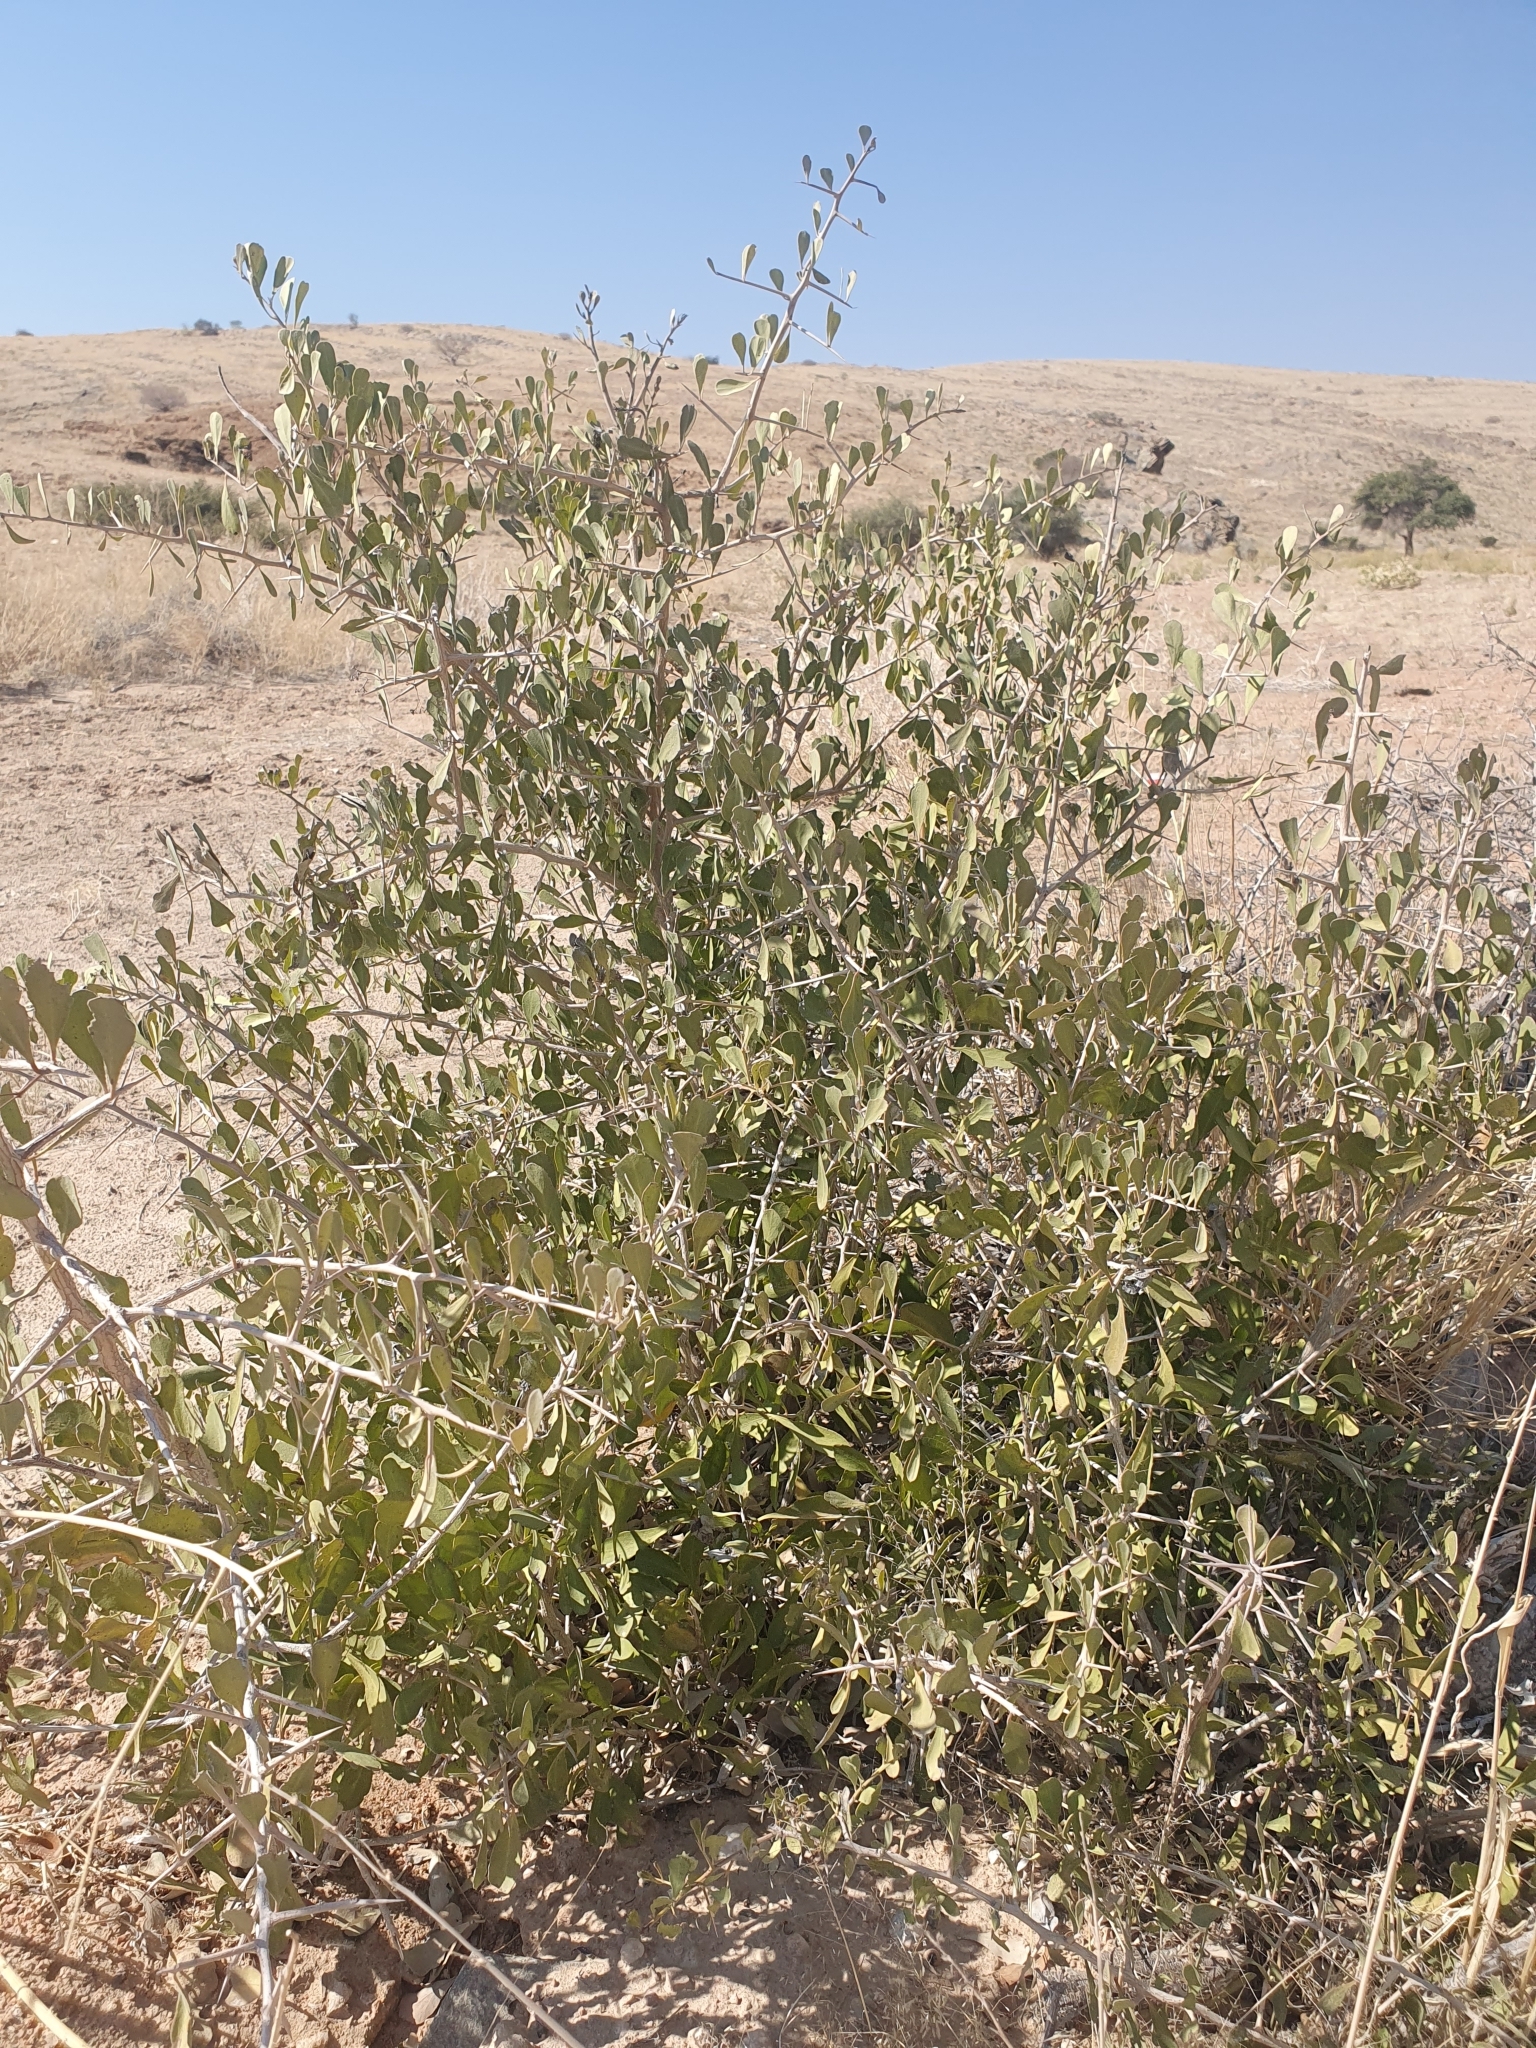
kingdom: Plantae
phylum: Tracheophyta
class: Magnoliopsida
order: Celastrales
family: Celastraceae
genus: Gymnosporia
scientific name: Gymnosporia senegalensis
